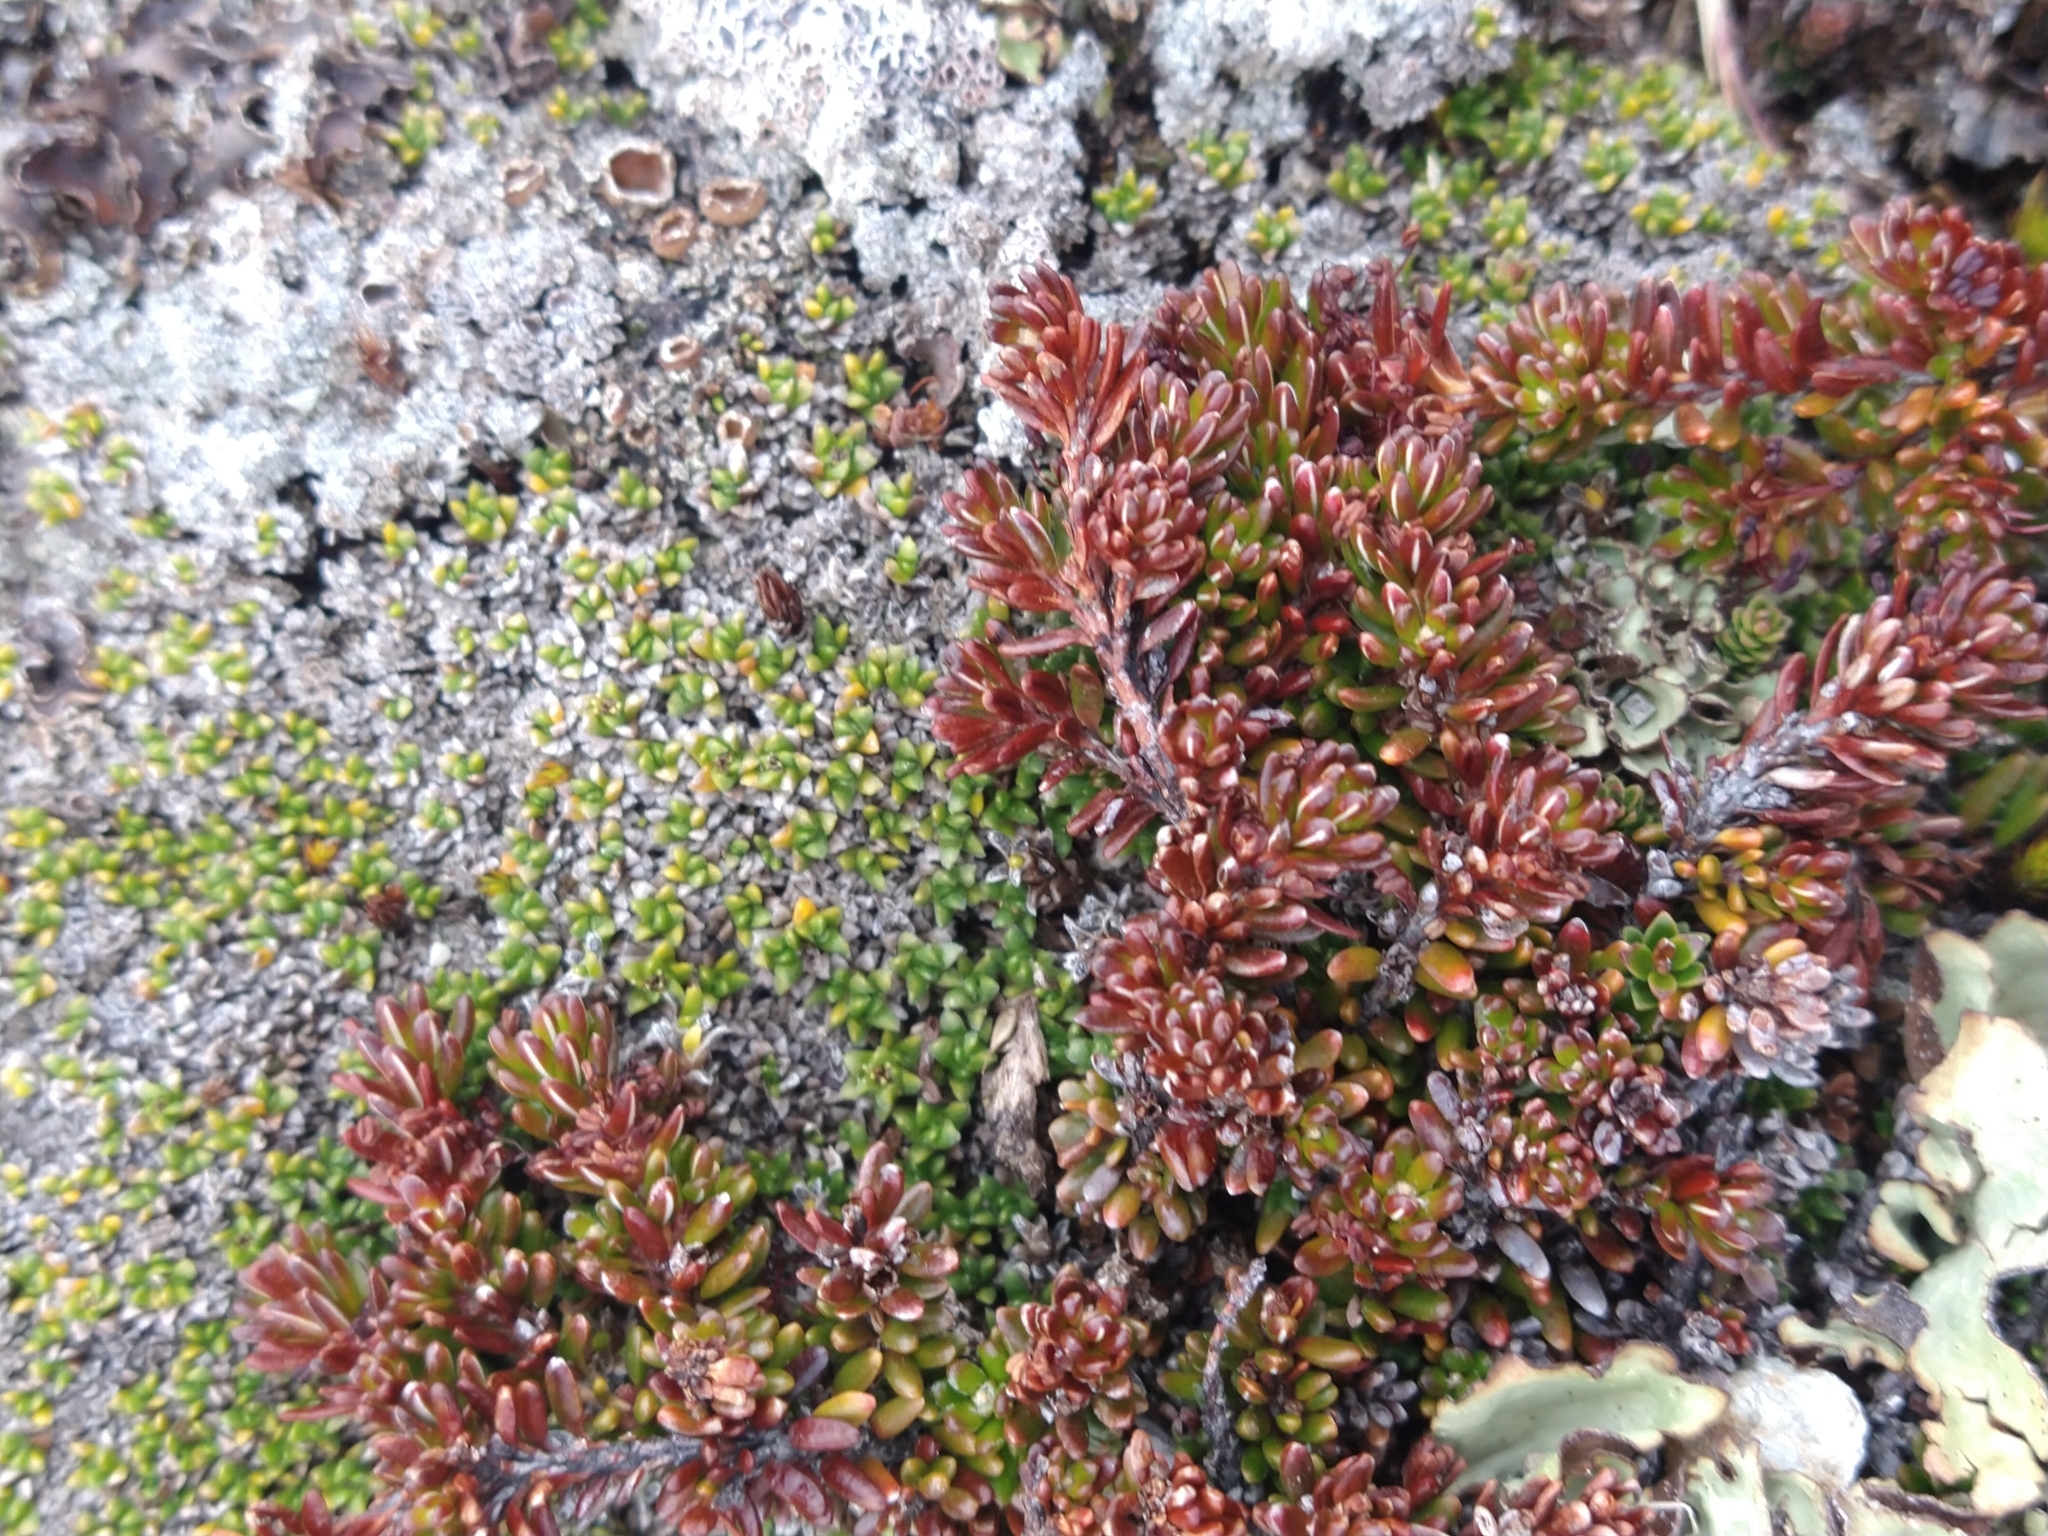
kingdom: Plantae
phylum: Tracheophyta
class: Magnoliopsida
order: Ericales
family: Ericaceae
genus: Empetrum
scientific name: Empetrum rubrum
